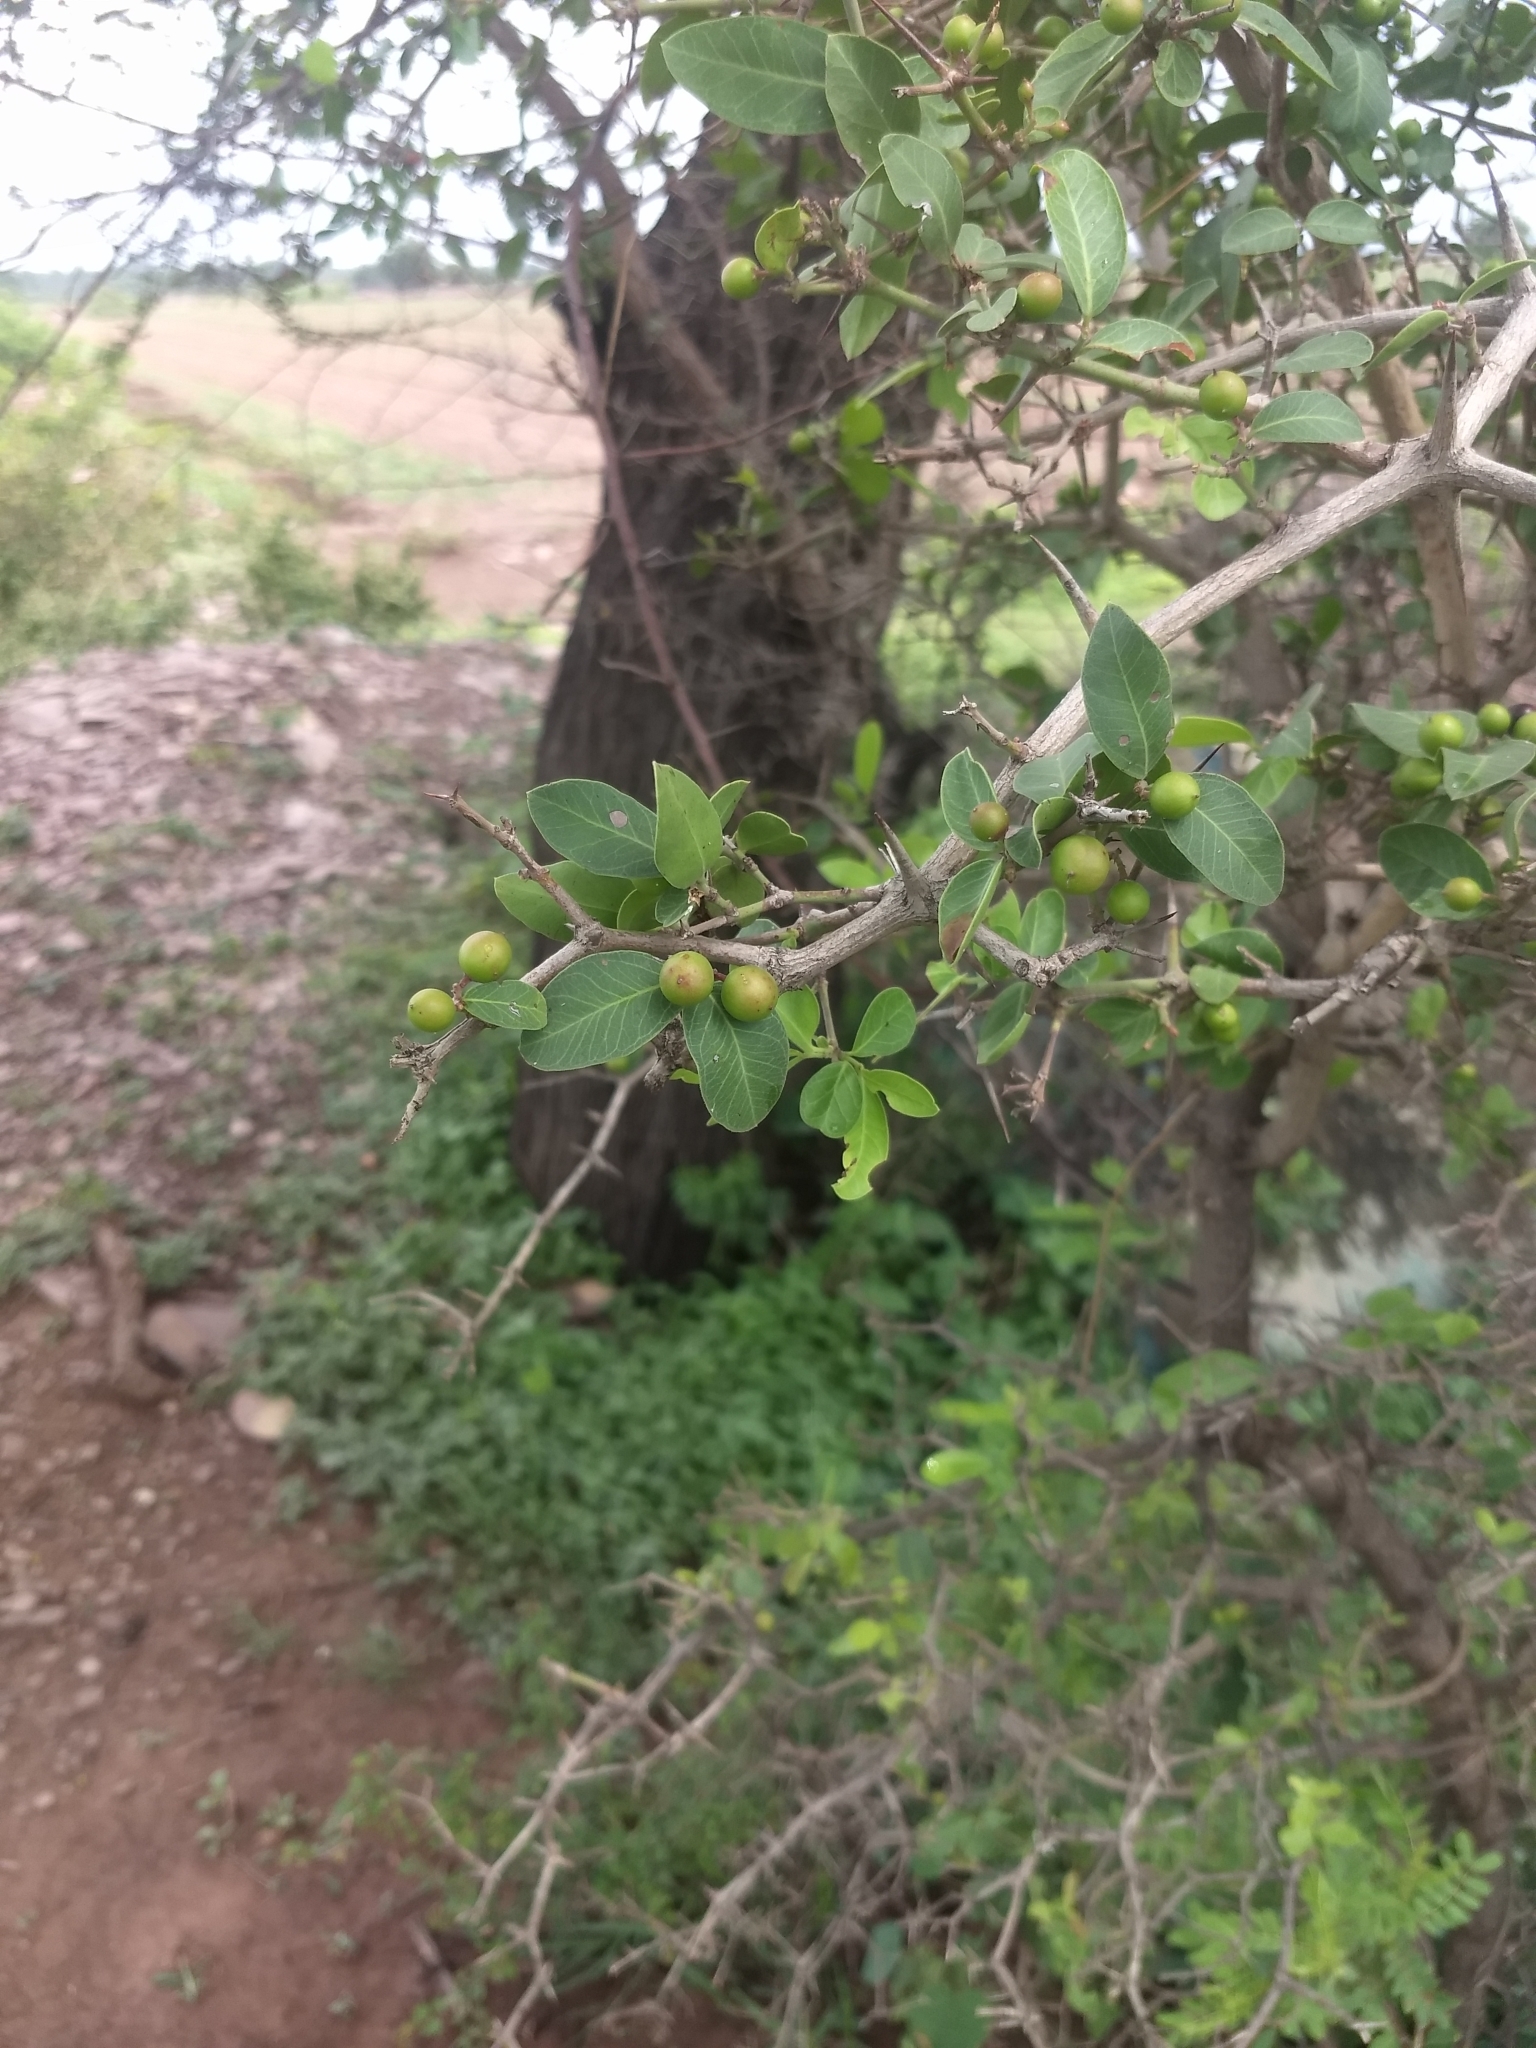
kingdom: Plantae
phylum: Tracheophyta
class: Magnoliopsida
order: Gentianales
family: Apocynaceae
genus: Carissa
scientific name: Carissa carandas
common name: Karanda
